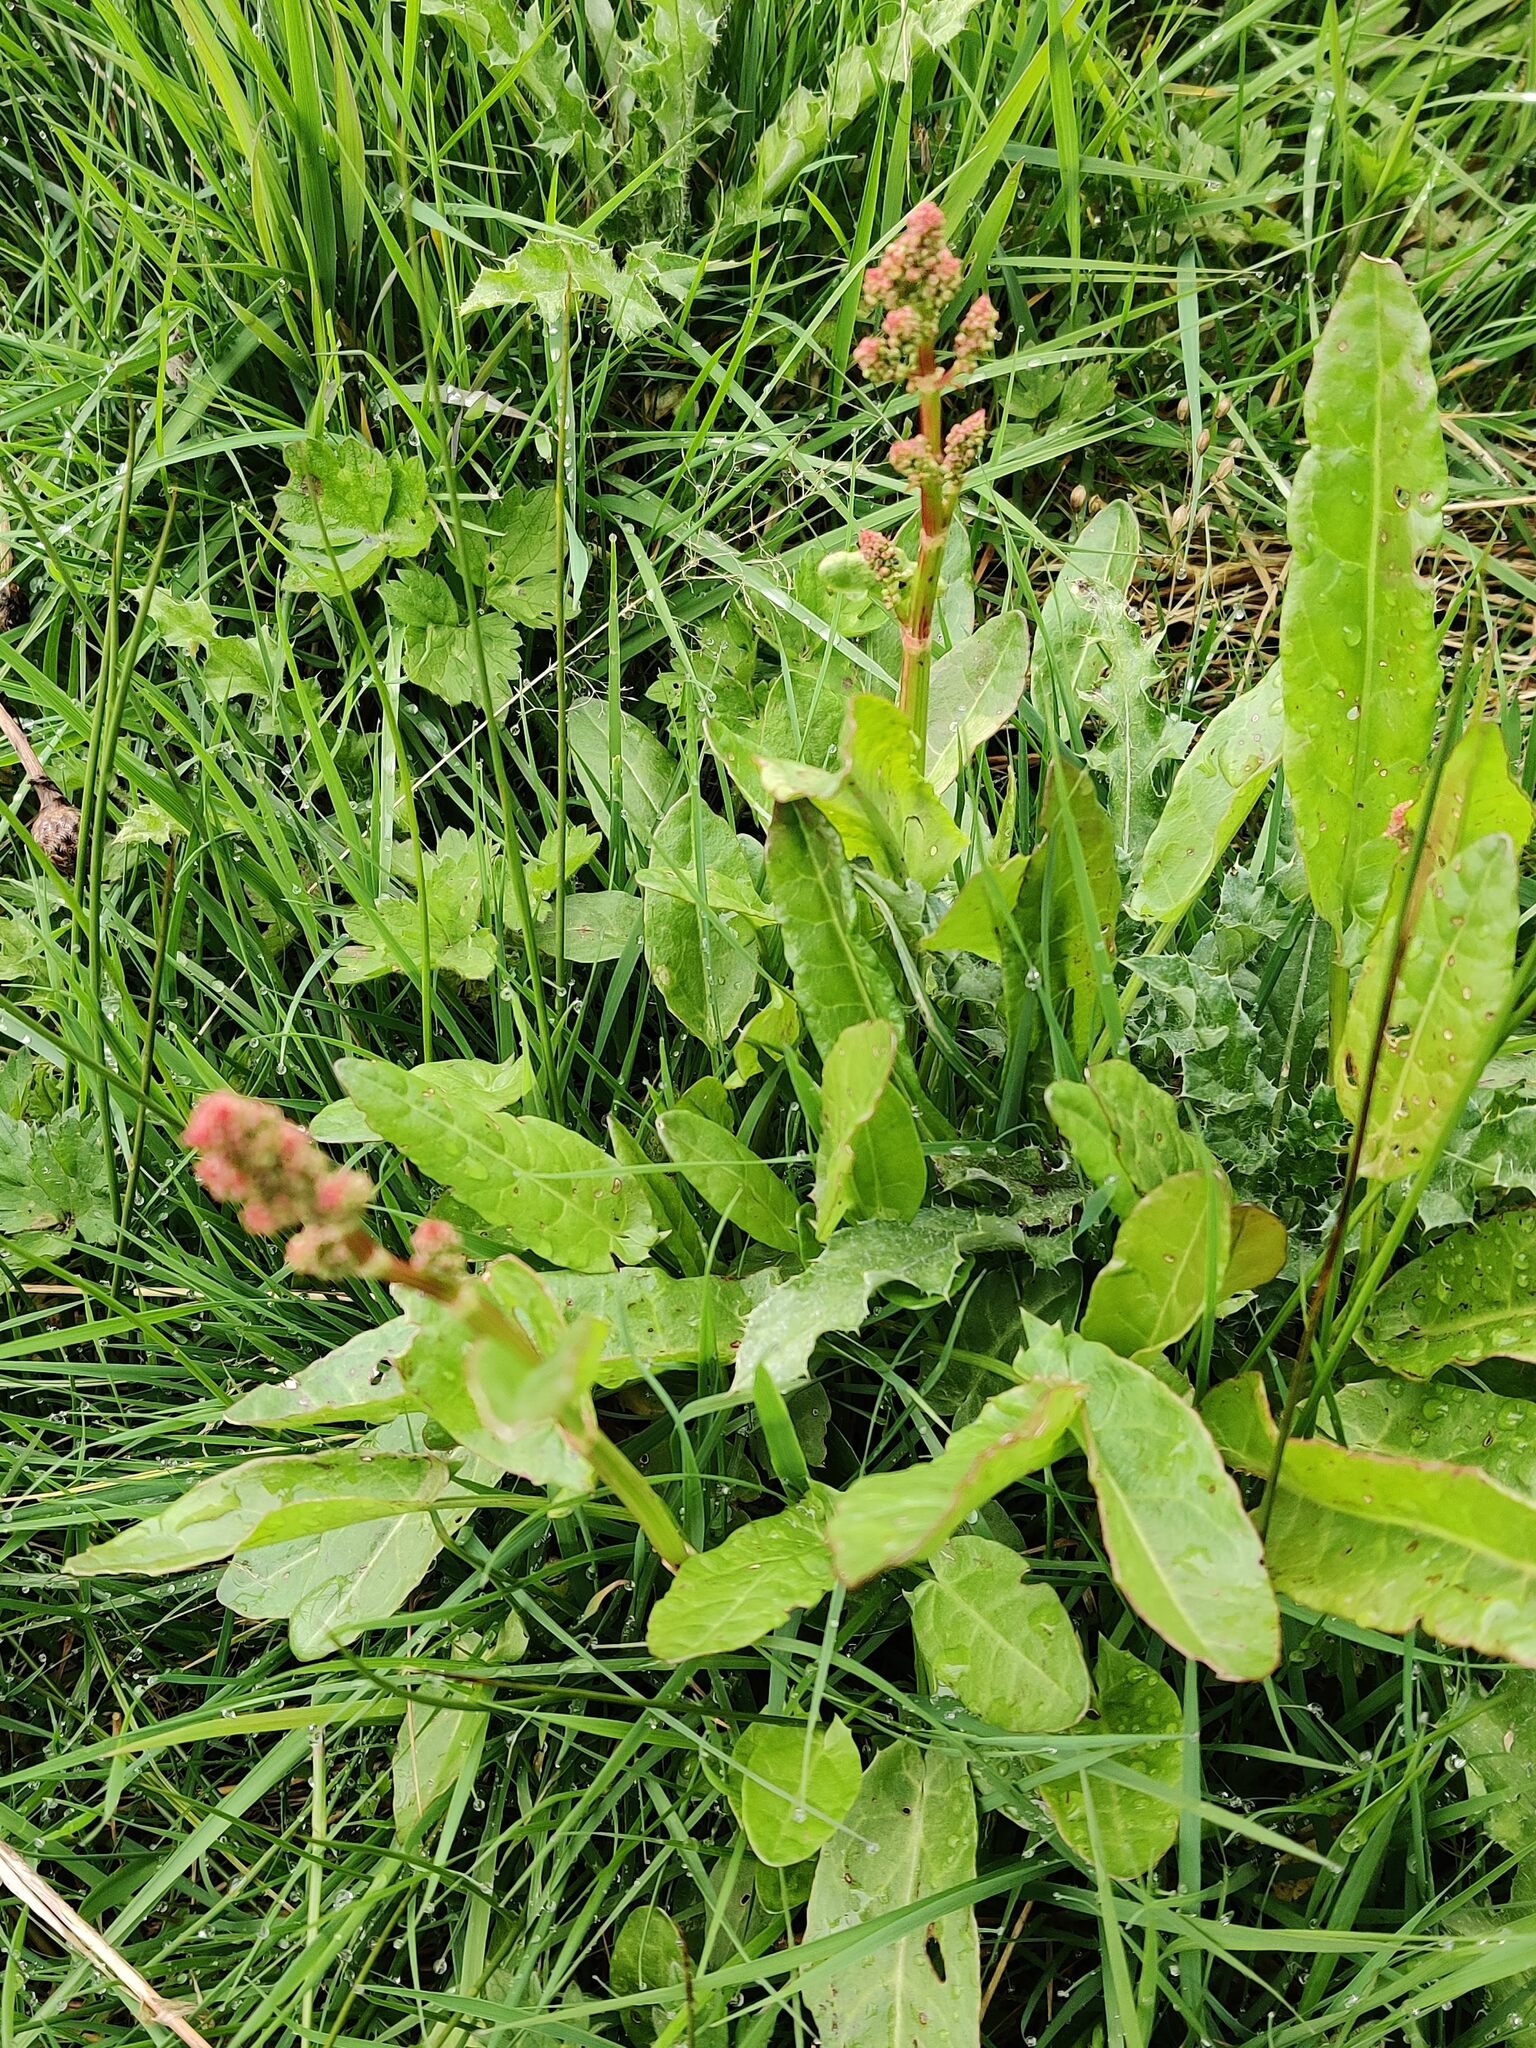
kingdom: Plantae
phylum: Tracheophyta
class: Magnoliopsida
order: Caryophyllales
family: Polygonaceae
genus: Rumex
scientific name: Rumex acetosa
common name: Garden sorrel
